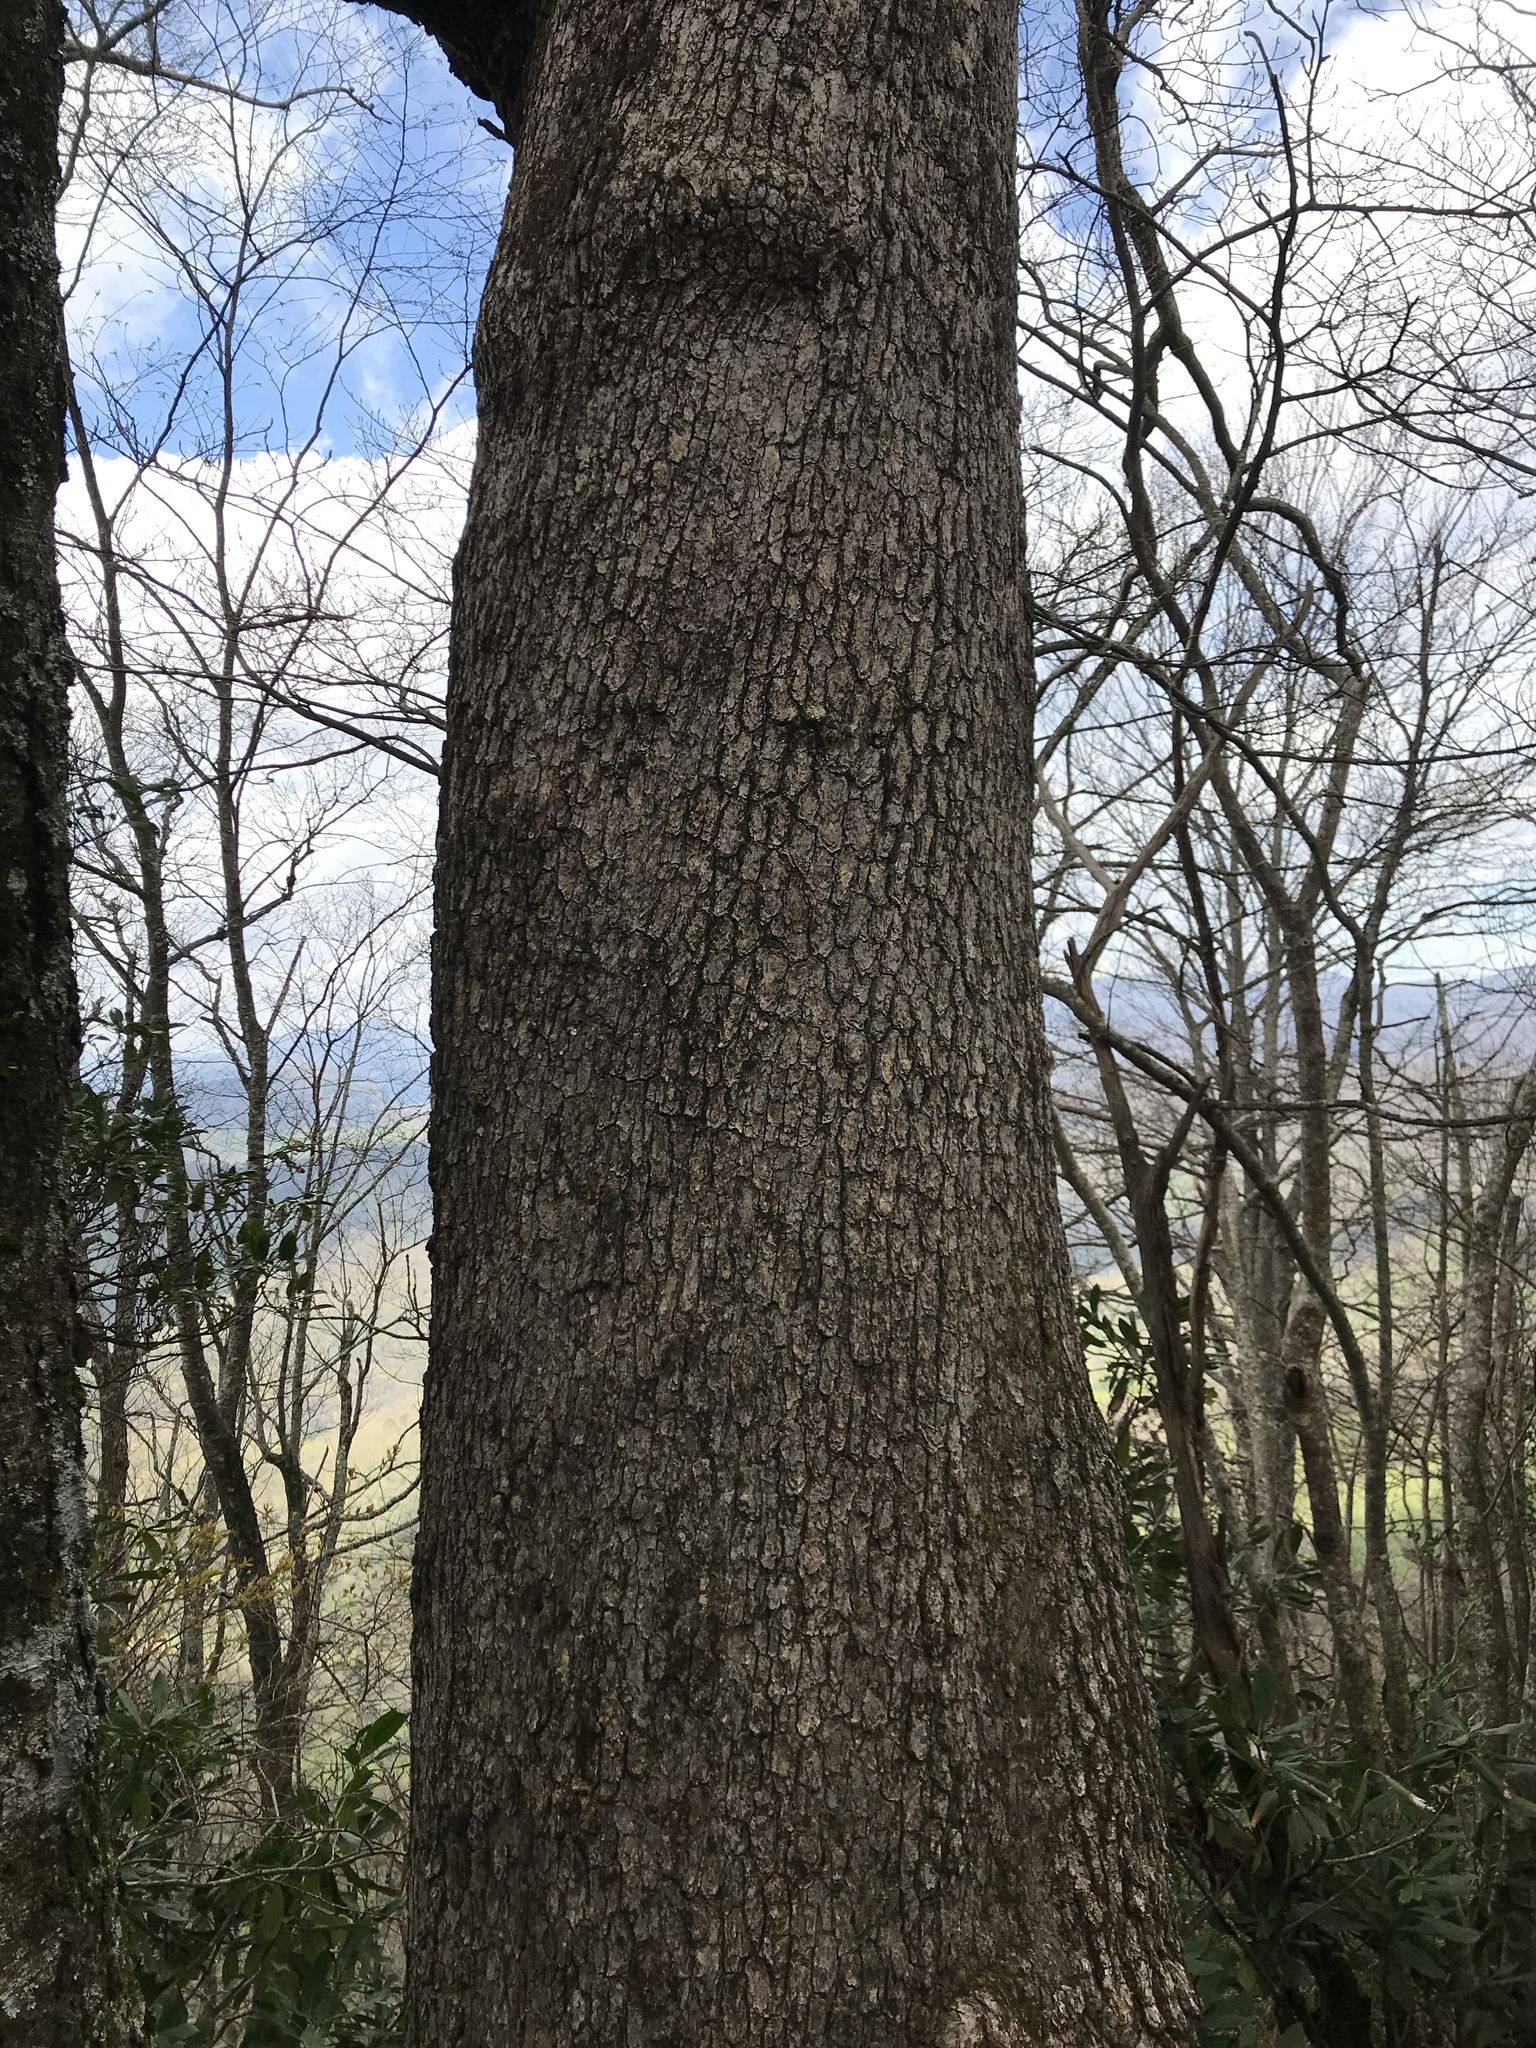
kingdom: Plantae
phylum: Tracheophyta
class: Magnoliopsida
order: Fagales
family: Fagaceae
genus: Quercus
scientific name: Quercus alba
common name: White oak
